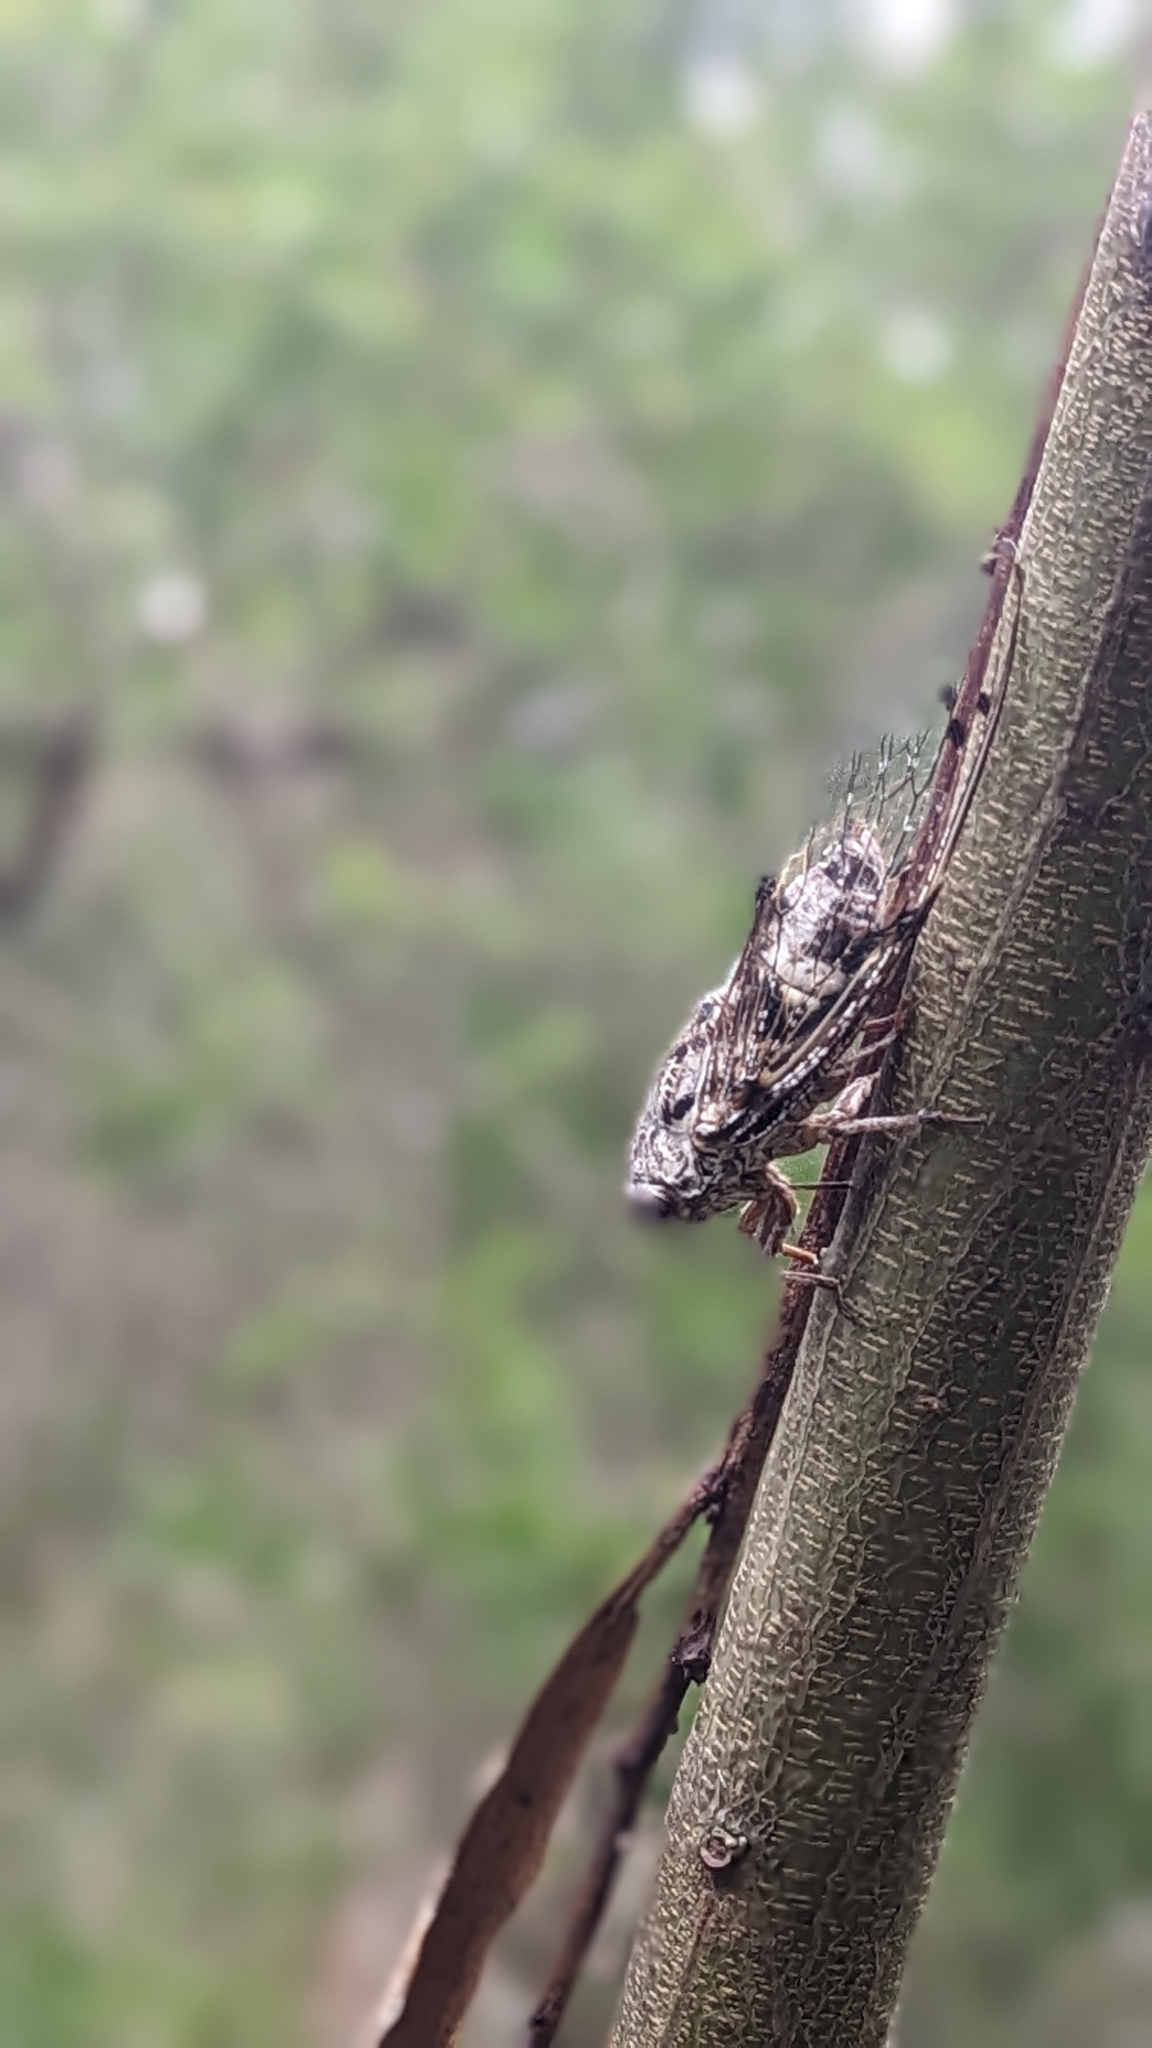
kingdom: Animalia
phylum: Arthropoda
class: Insecta
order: Hemiptera
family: Cicadidae
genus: Aleeta
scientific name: Aleeta curvicosta
